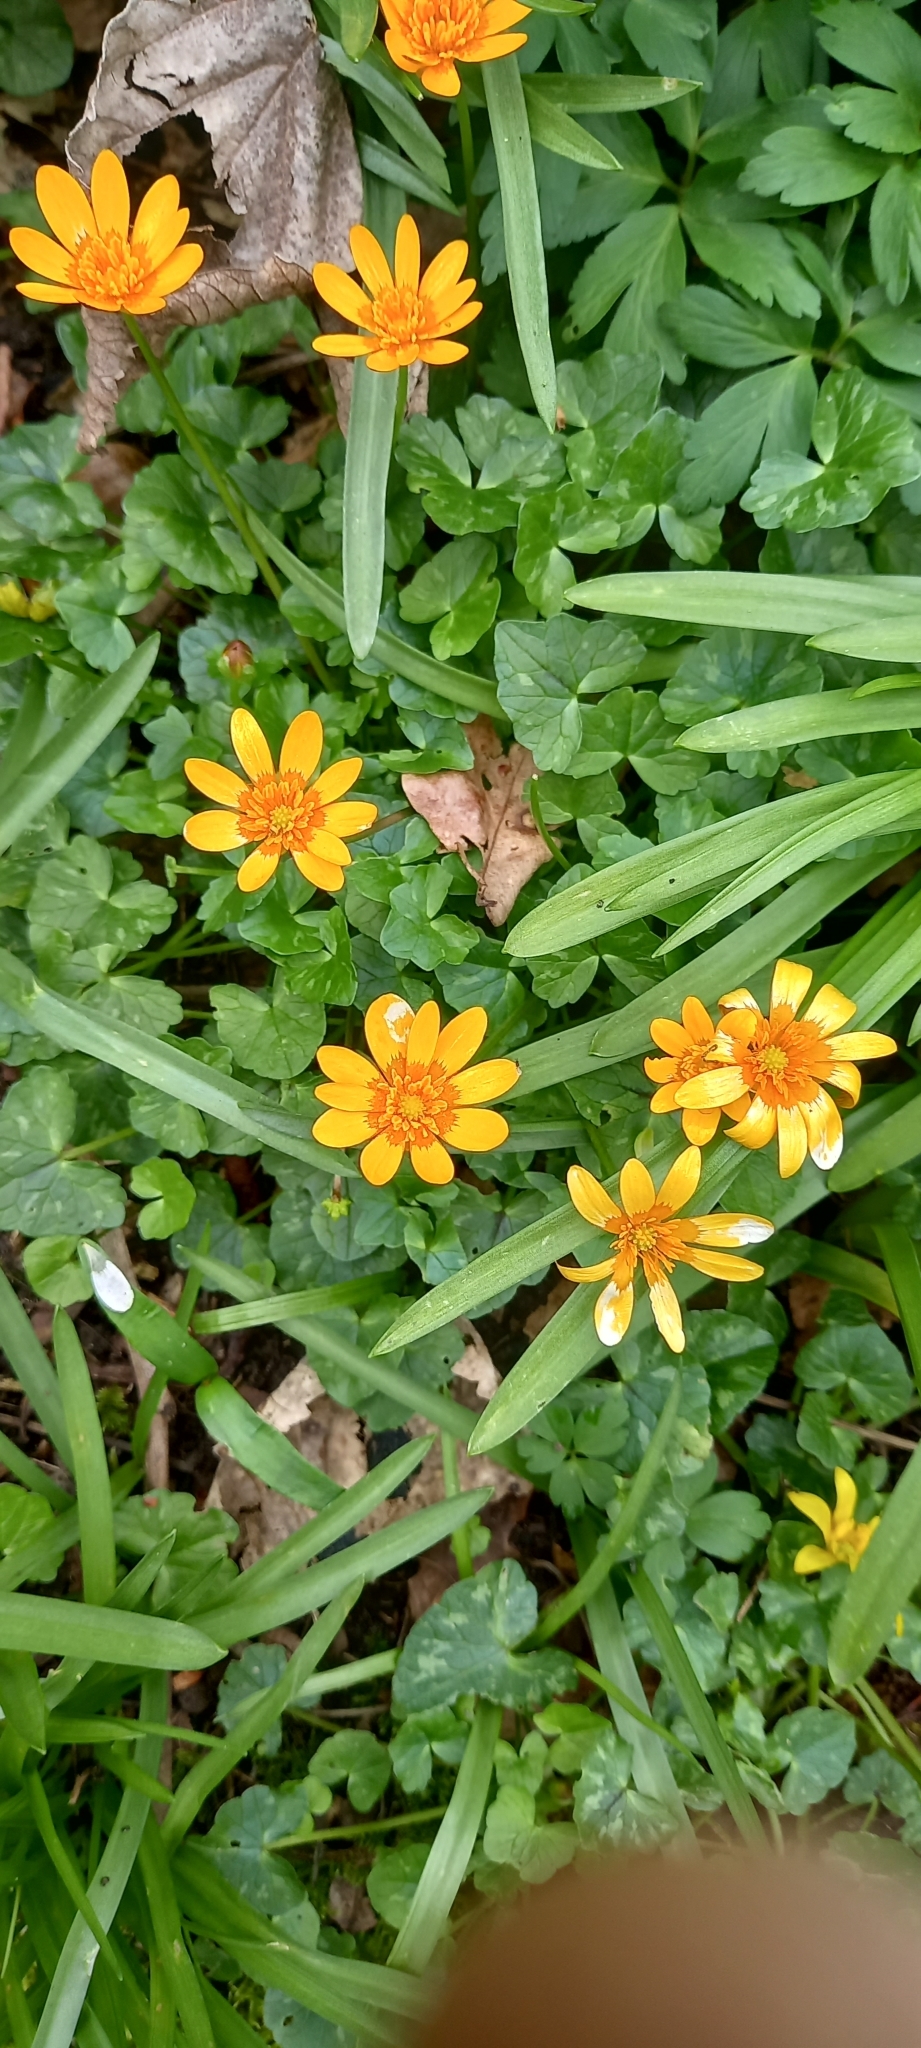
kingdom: Plantae
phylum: Tracheophyta
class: Magnoliopsida
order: Ranunculales
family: Ranunculaceae
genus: Ficaria
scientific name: Ficaria verna
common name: Lesser celandine
